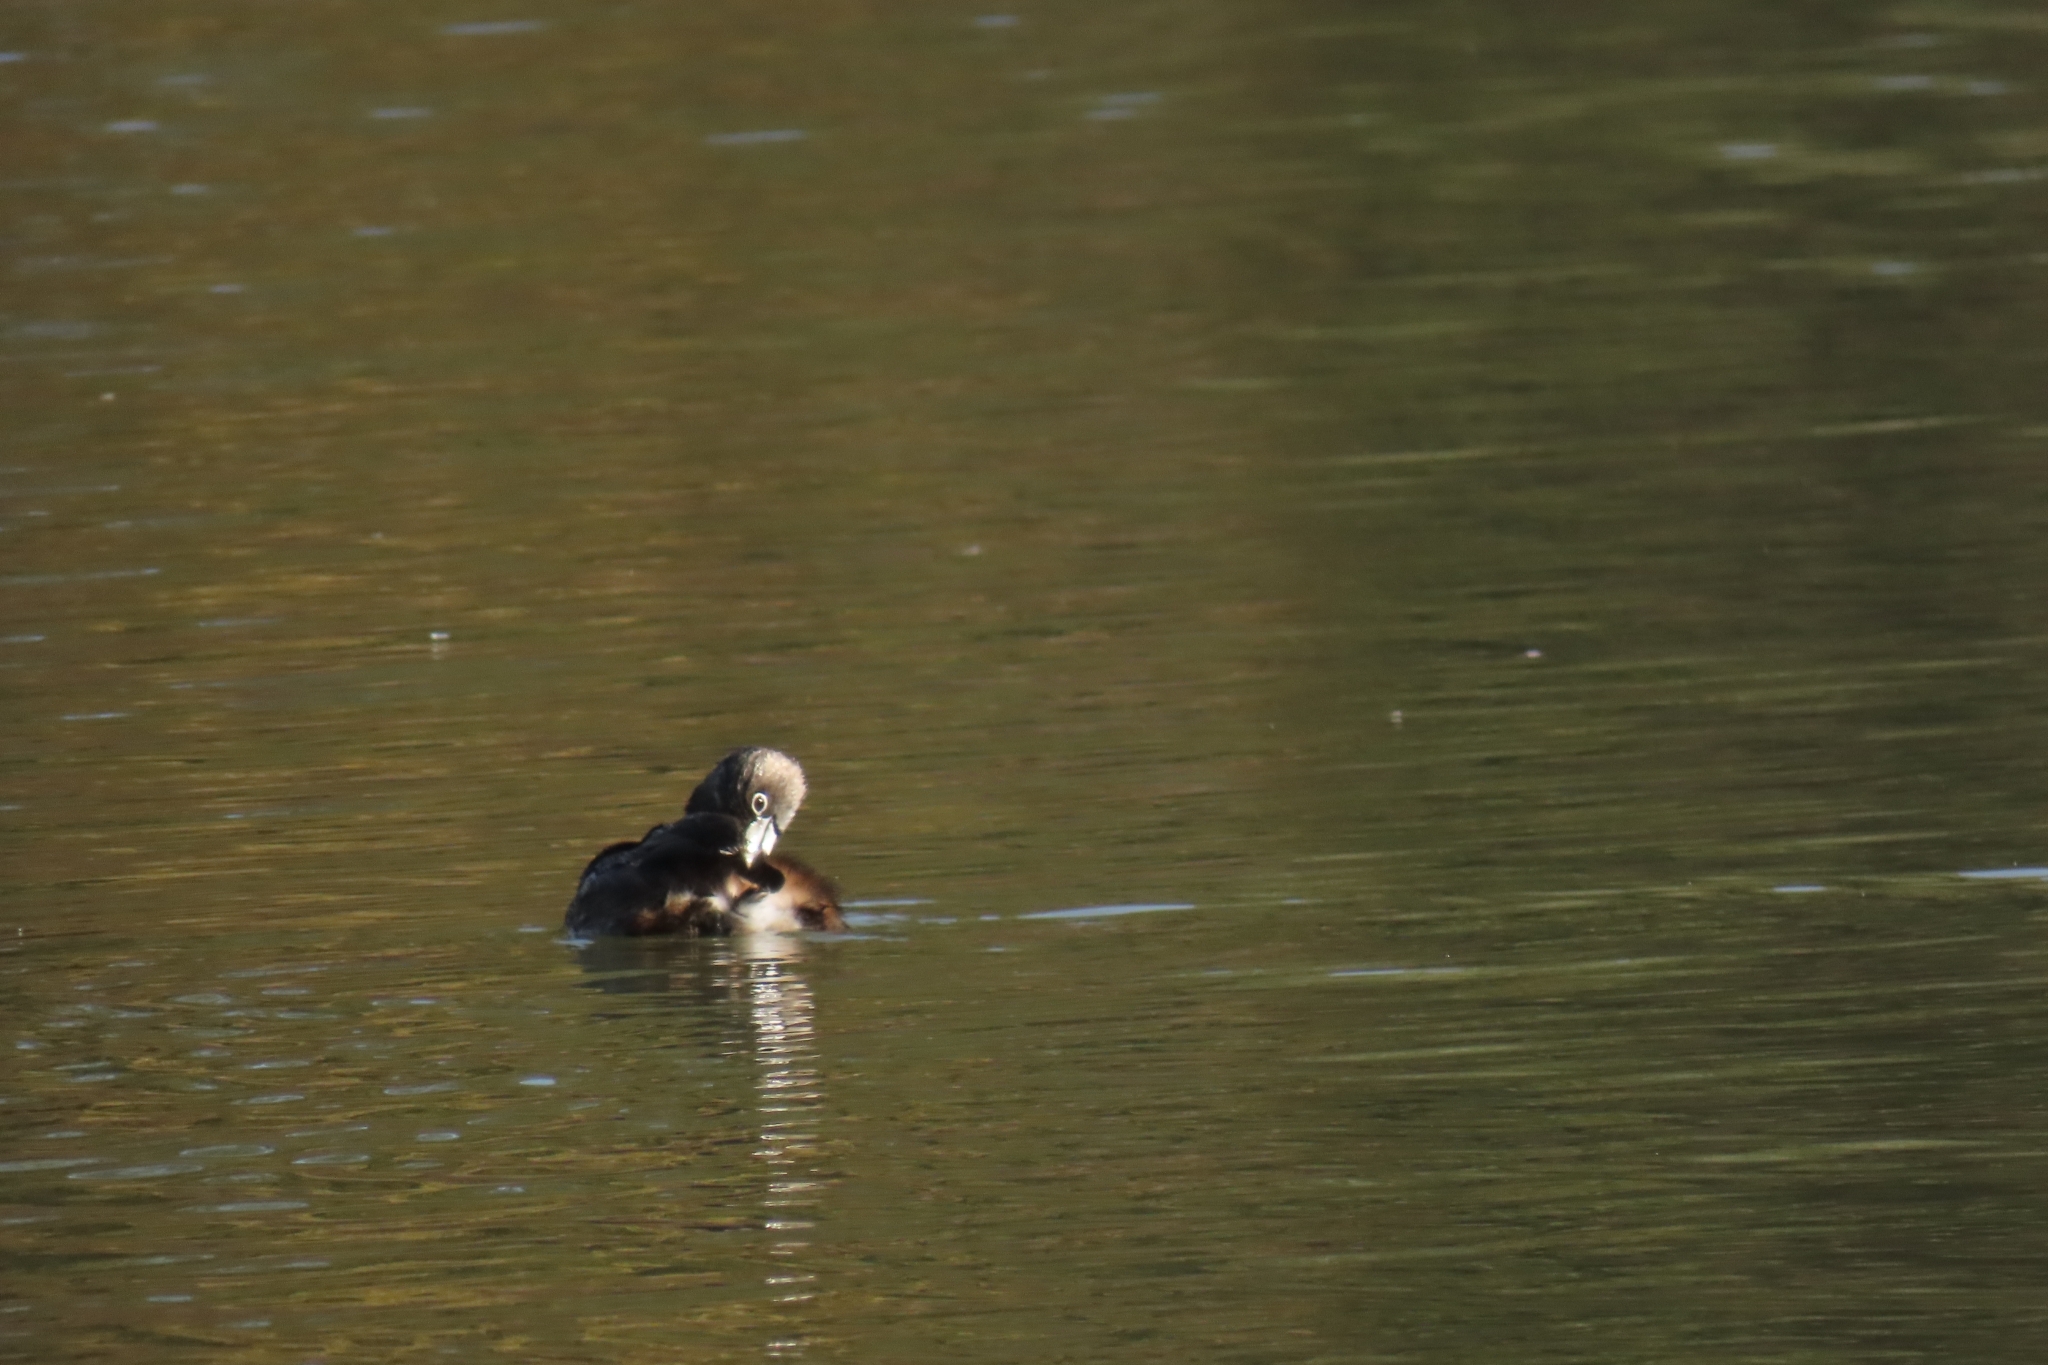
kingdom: Animalia
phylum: Chordata
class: Aves
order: Podicipediformes
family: Podicipedidae
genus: Podilymbus
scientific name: Podilymbus podiceps
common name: Pied-billed grebe
